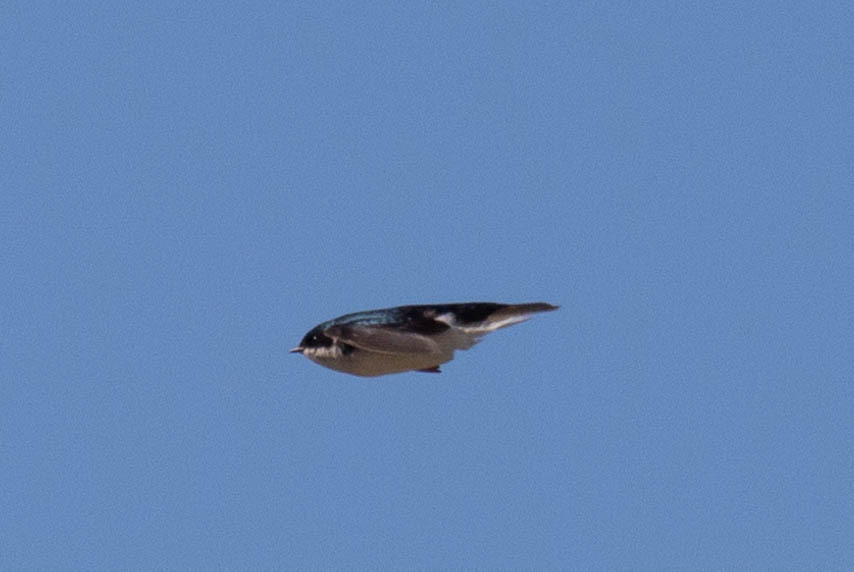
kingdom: Animalia
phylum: Chordata
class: Aves
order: Passeriformes
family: Hirundinidae
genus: Tachycineta
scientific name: Tachycineta bicolor
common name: Tree swallow
